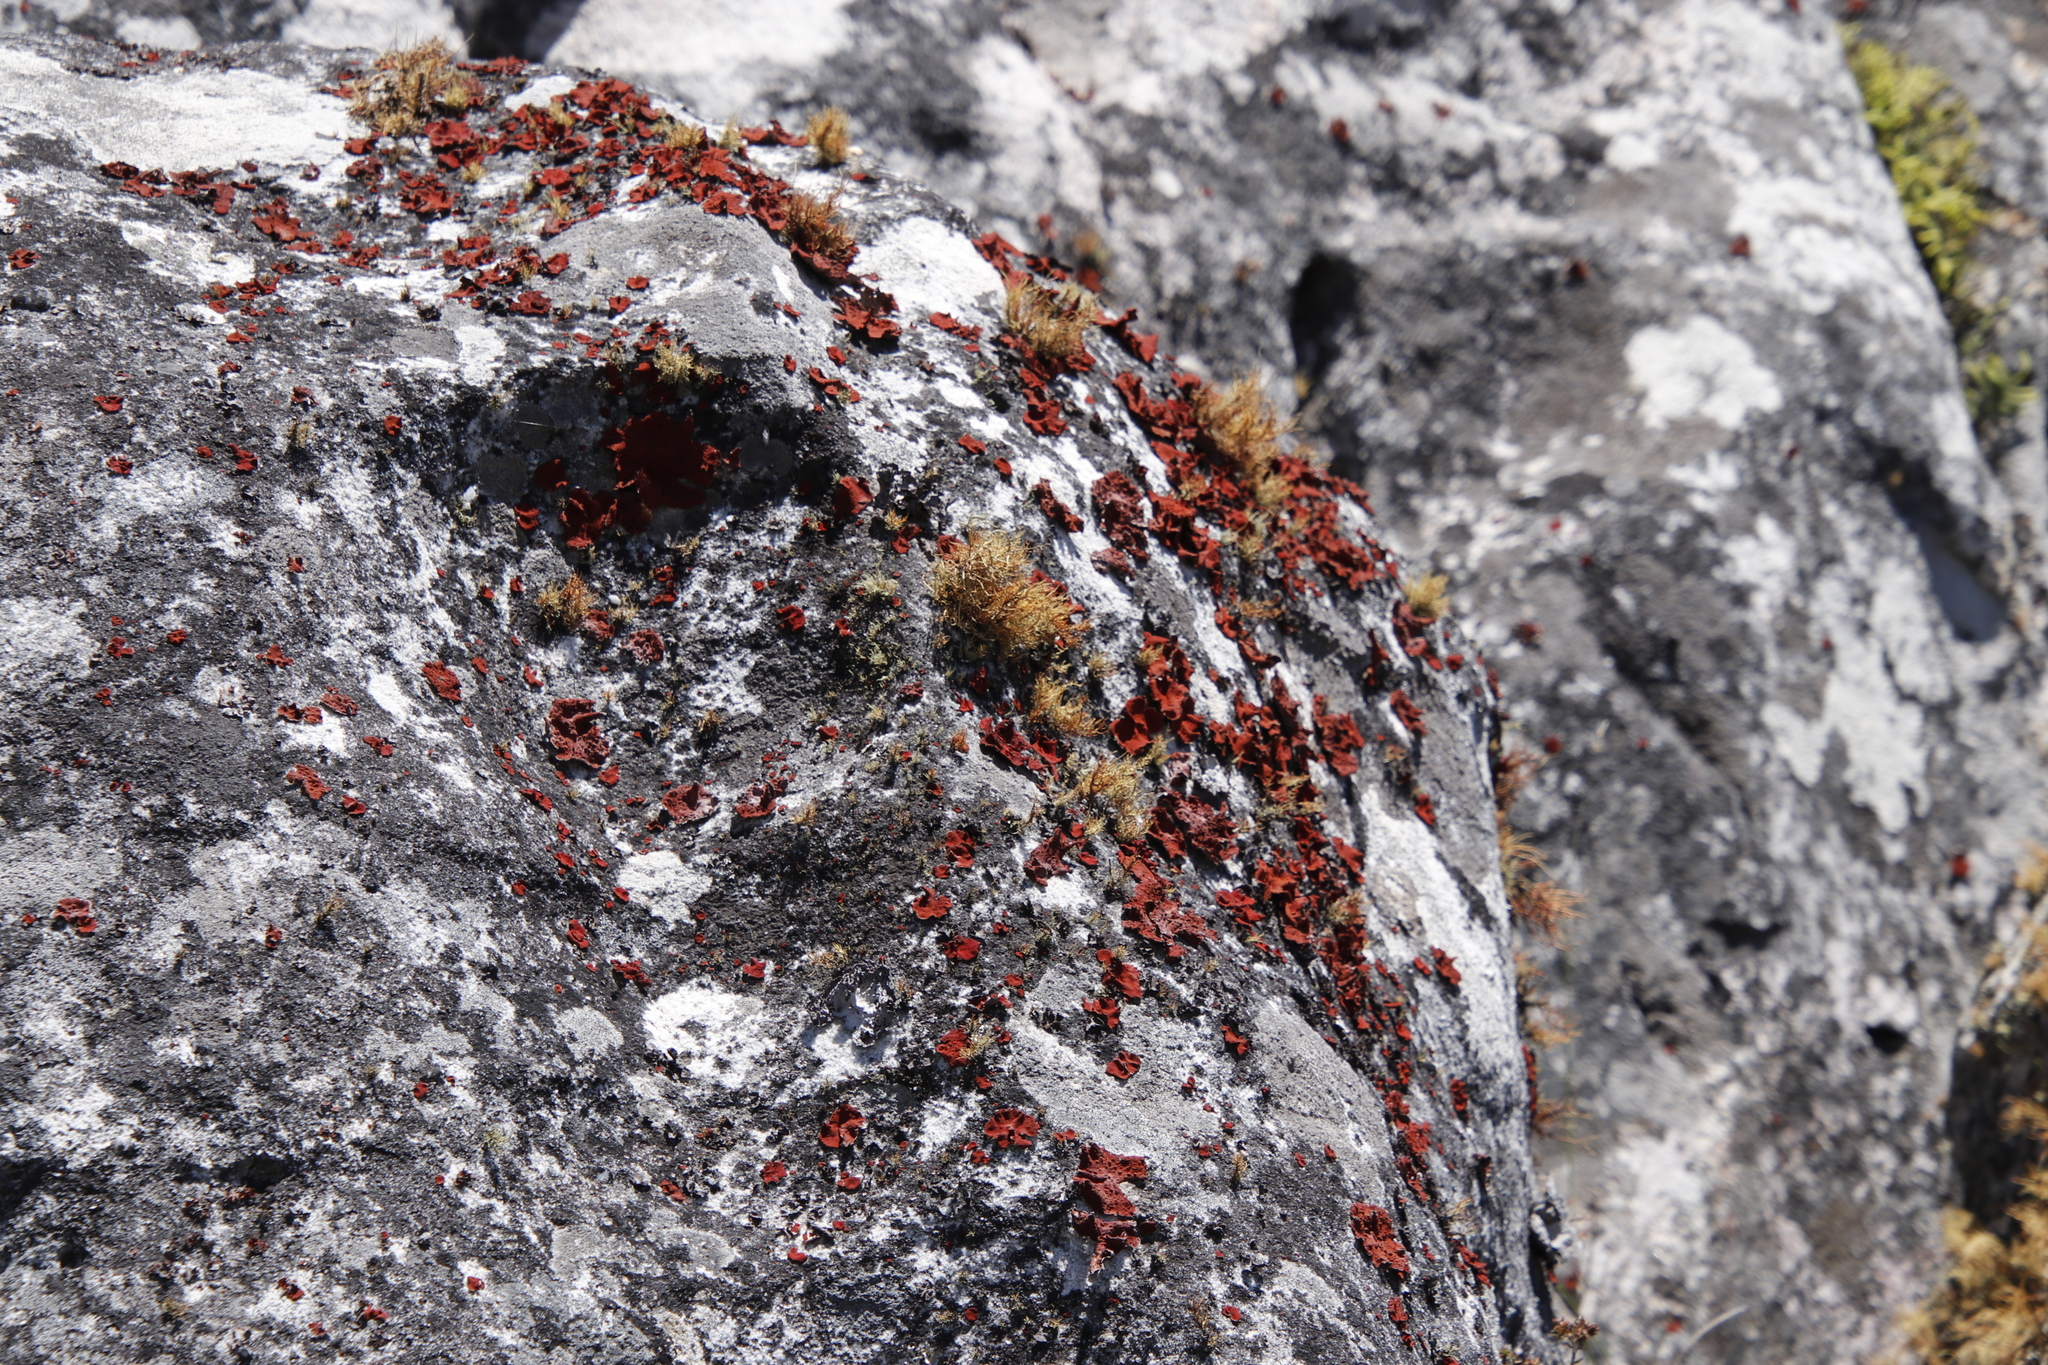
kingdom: Fungi
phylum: Ascomycota
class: Lecanoromycetes
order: Umbilicariales
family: Umbilicariaceae
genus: Lasallia
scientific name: Lasallia rubiginosa
